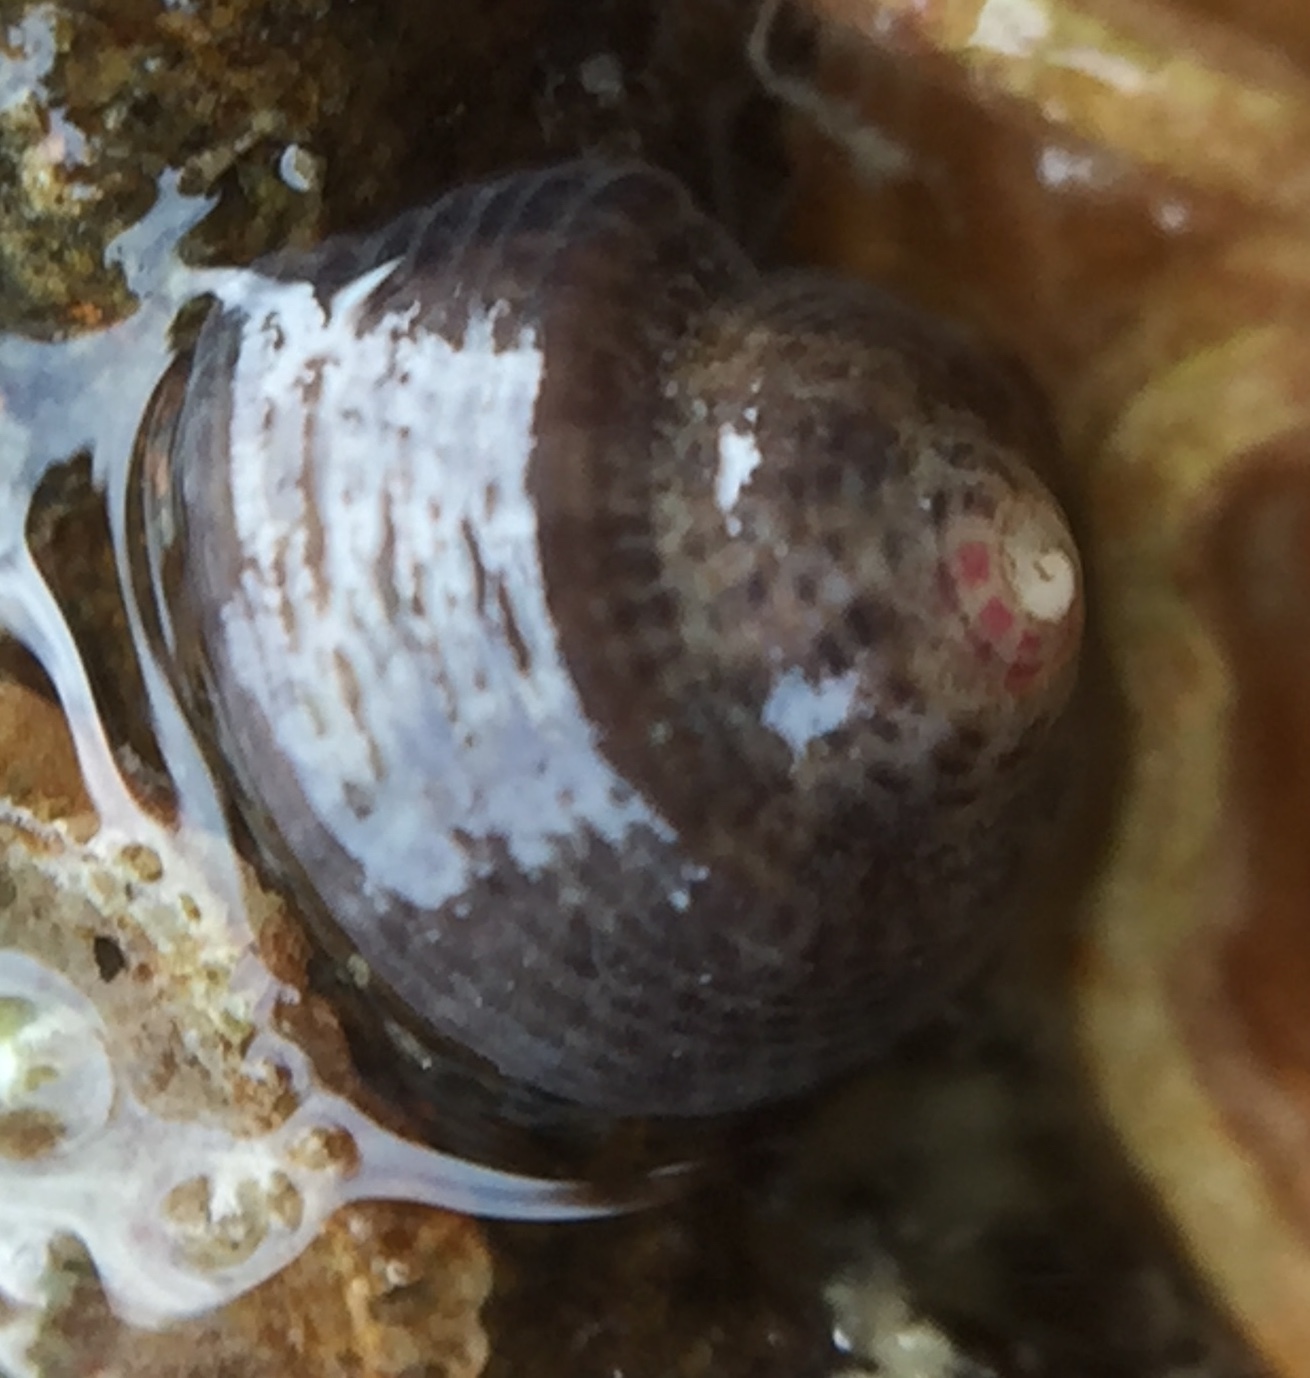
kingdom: Animalia
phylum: Mollusca
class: Gastropoda
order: Trochida
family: Trochidae
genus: Coelotrochus
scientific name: Coelotrochus oppressus
